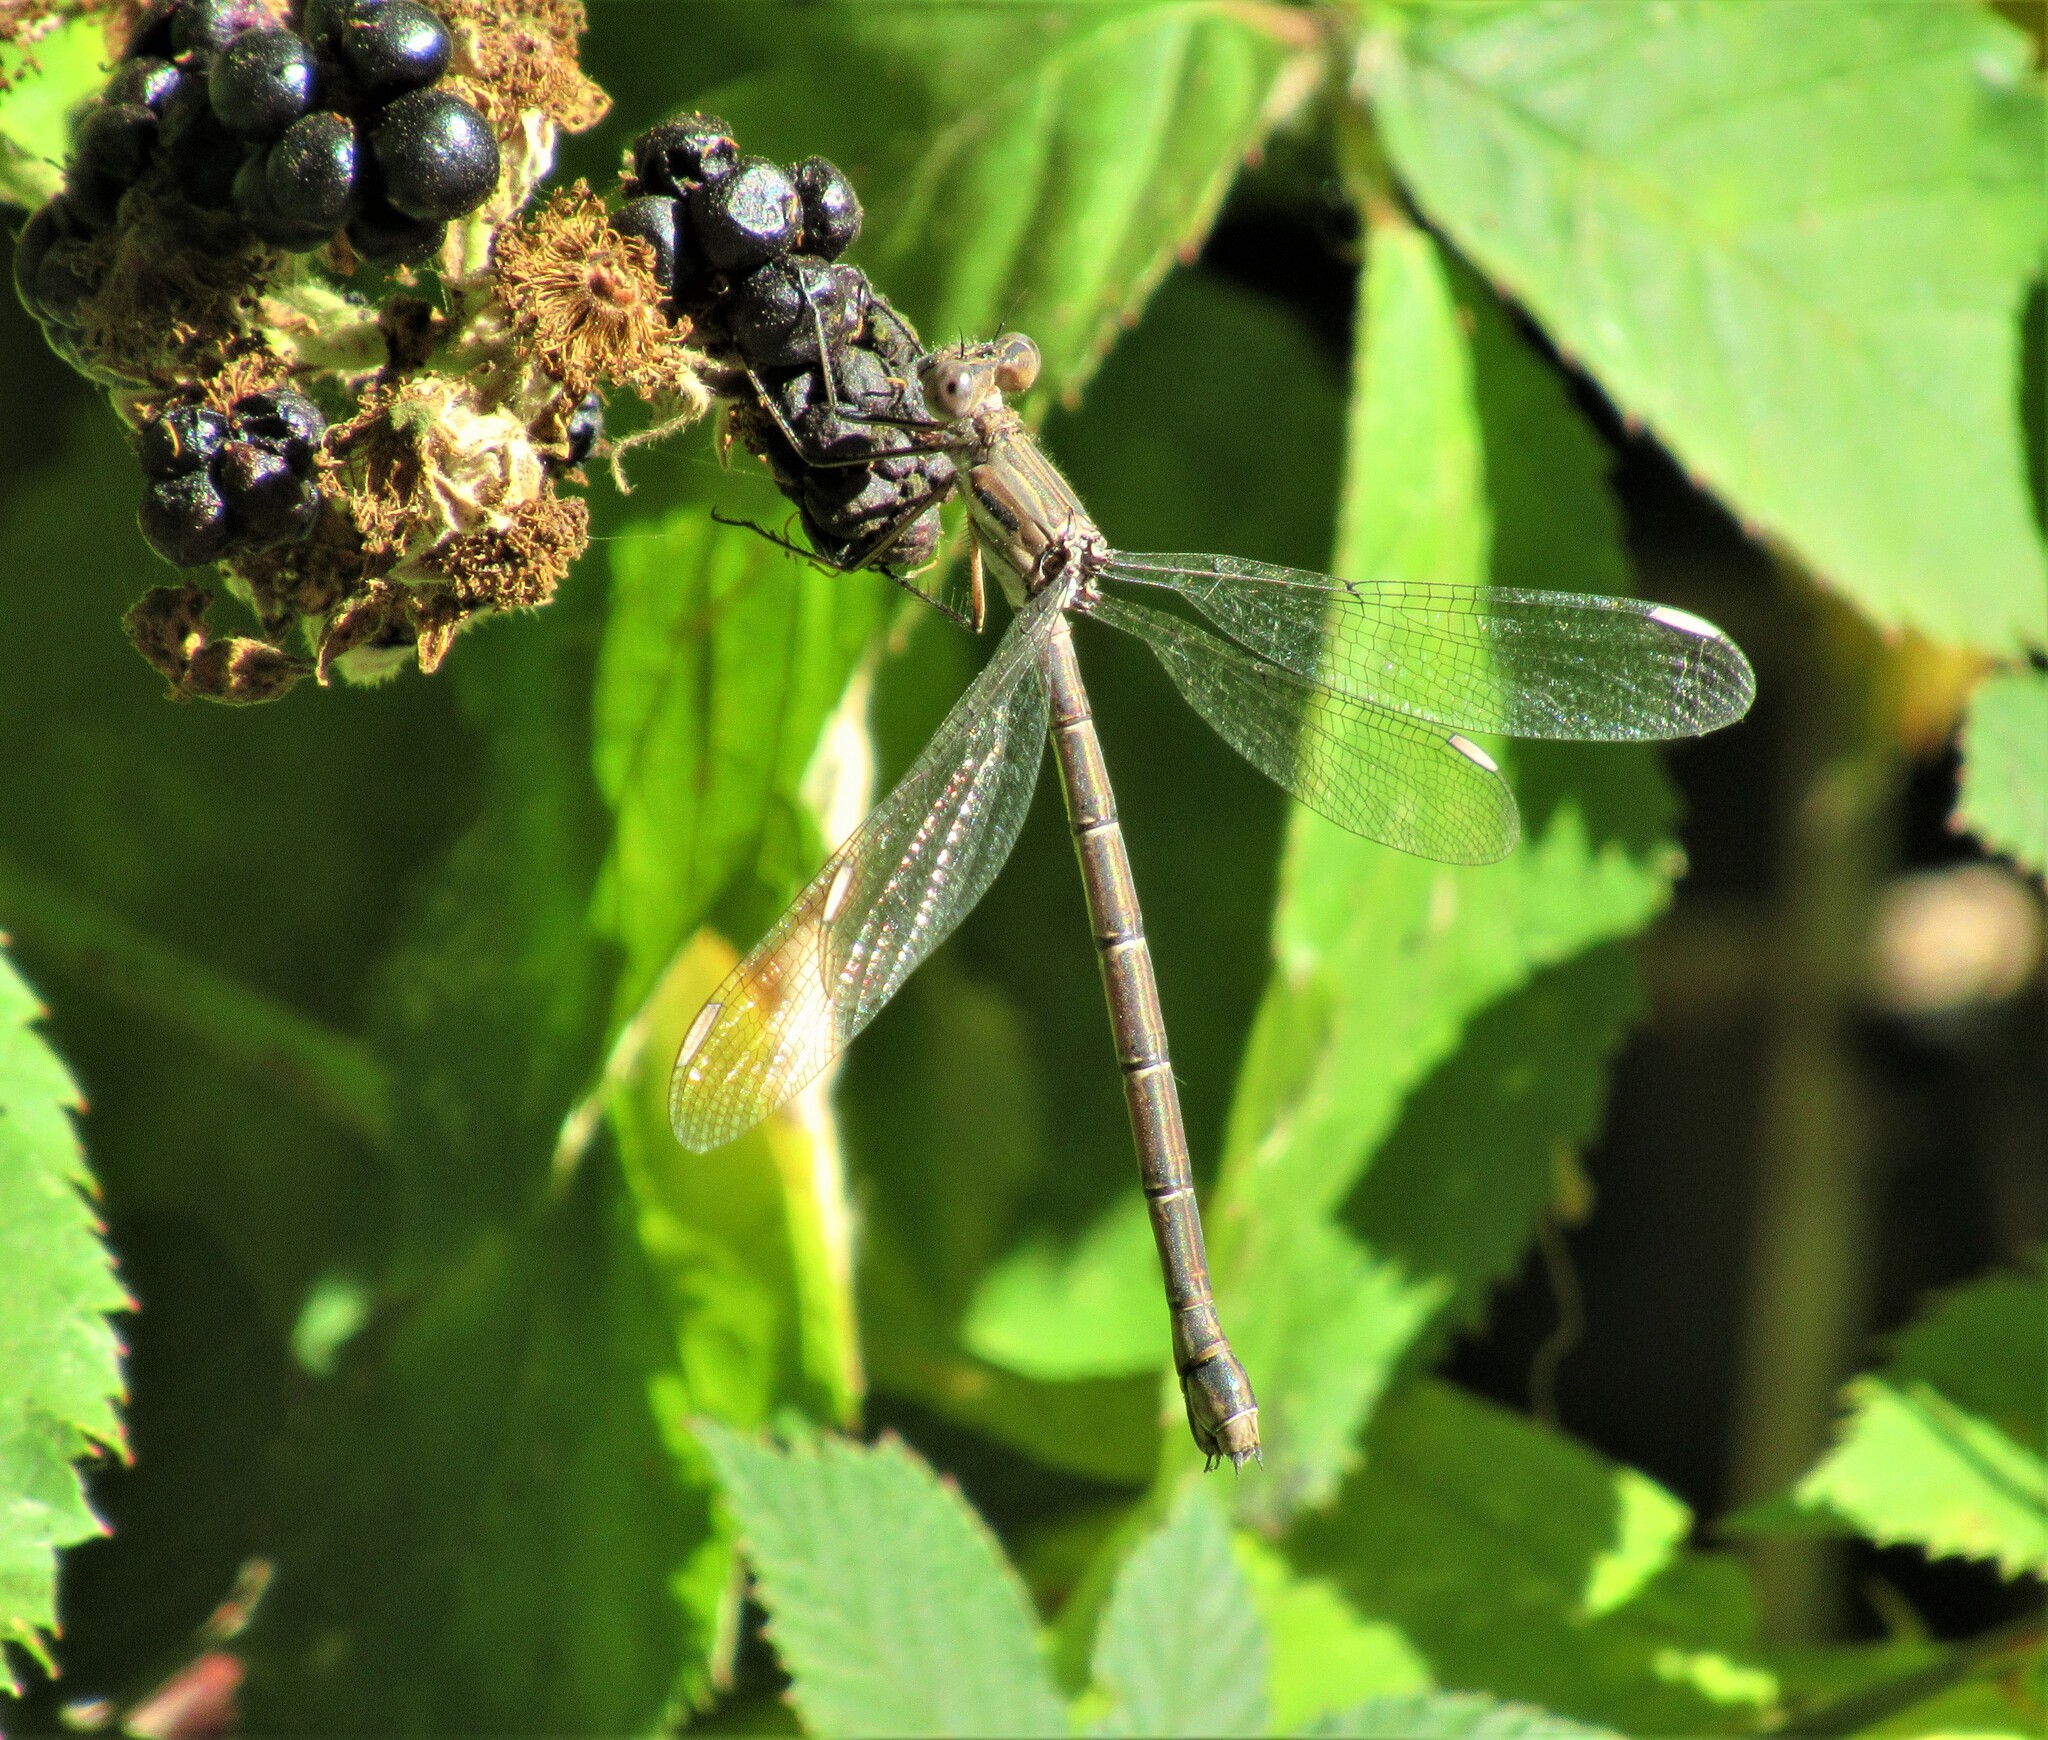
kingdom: Animalia
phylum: Arthropoda
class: Insecta
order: Odonata
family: Lestidae
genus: Archilestes
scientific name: Archilestes californicus
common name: California spreadwing
